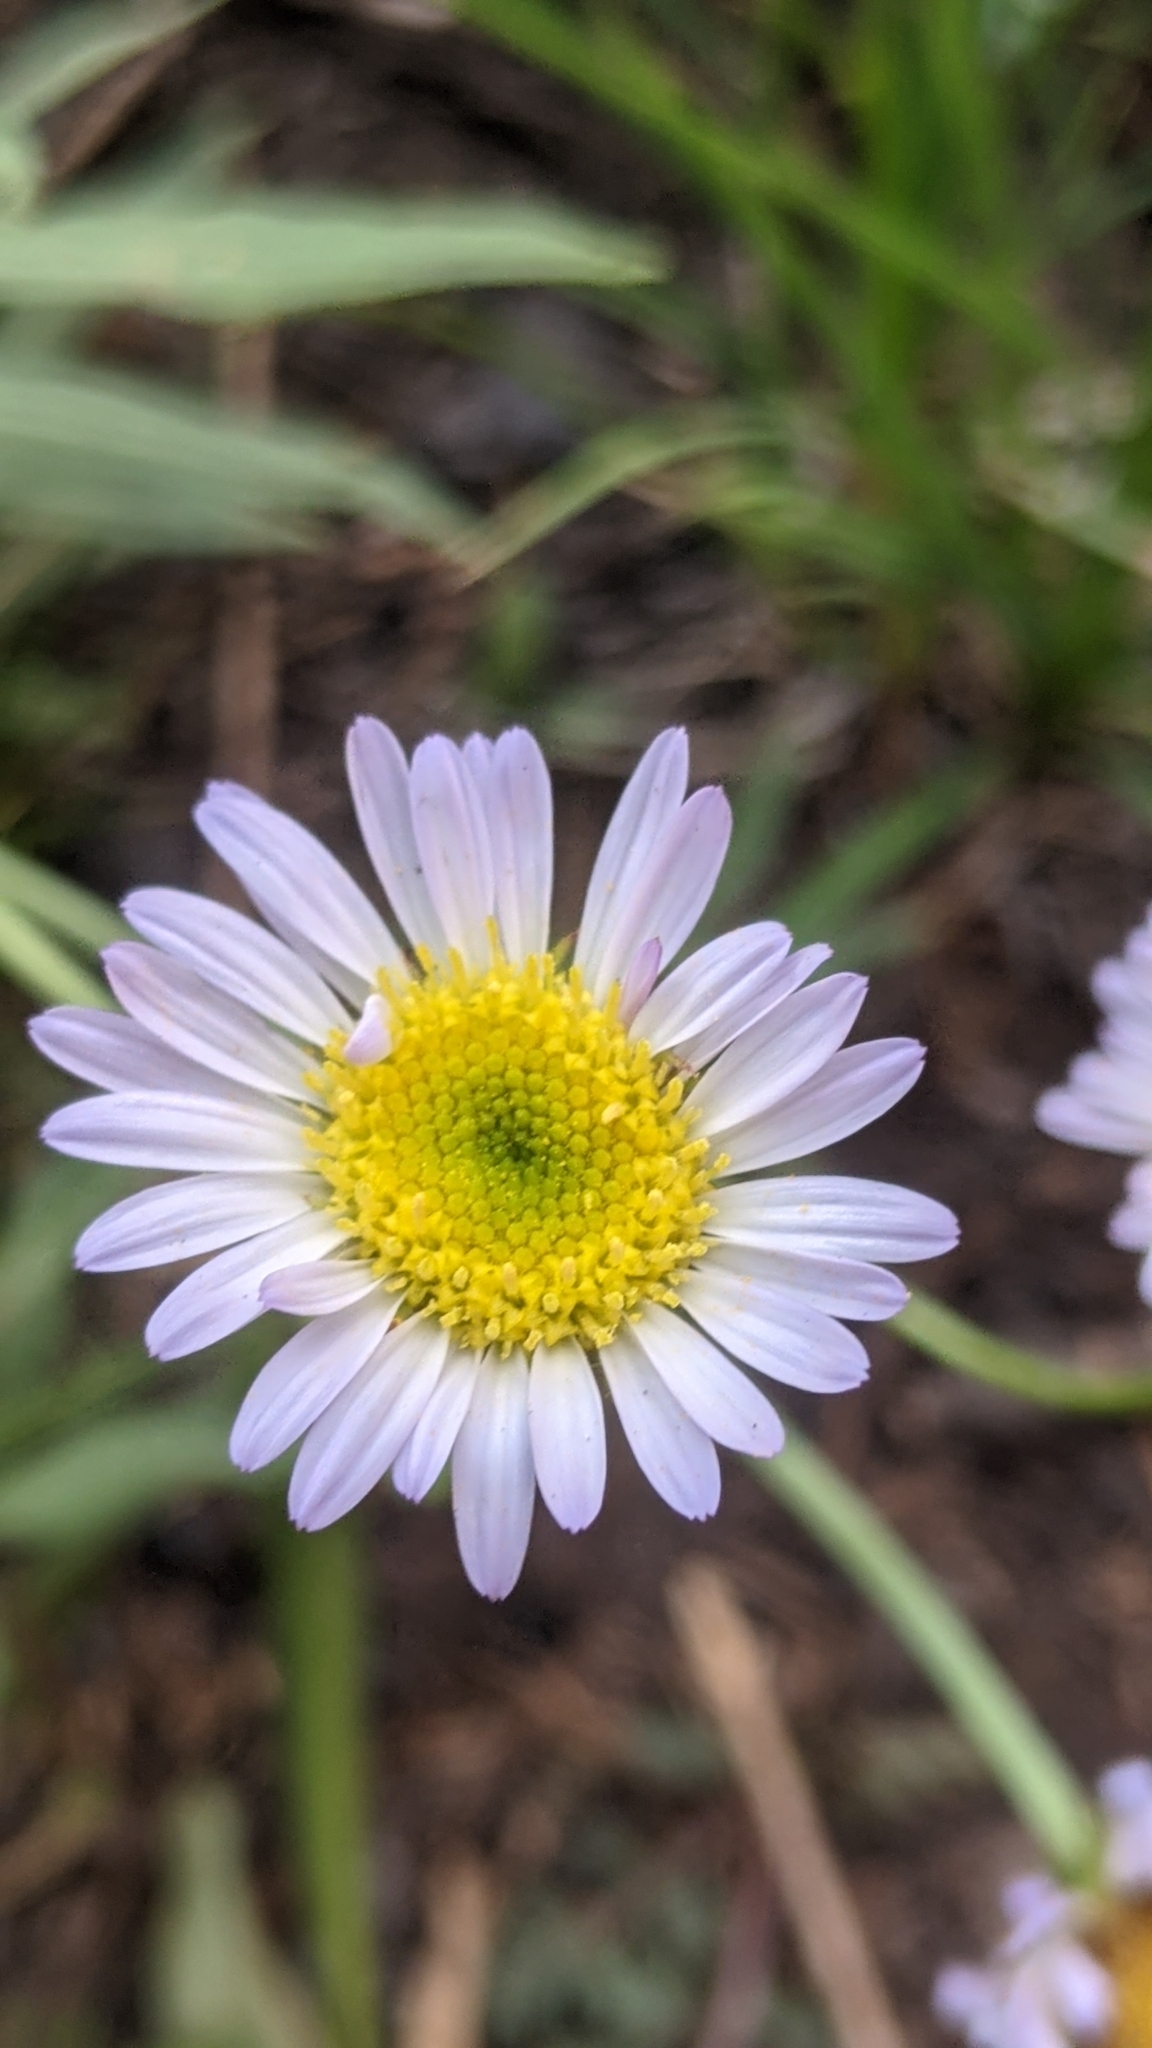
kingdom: Plantae
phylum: Tracheophyta
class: Magnoliopsida
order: Asterales
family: Asteraceae
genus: Erigeron
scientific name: Erigeron glacialis
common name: Subalpine fleabane
